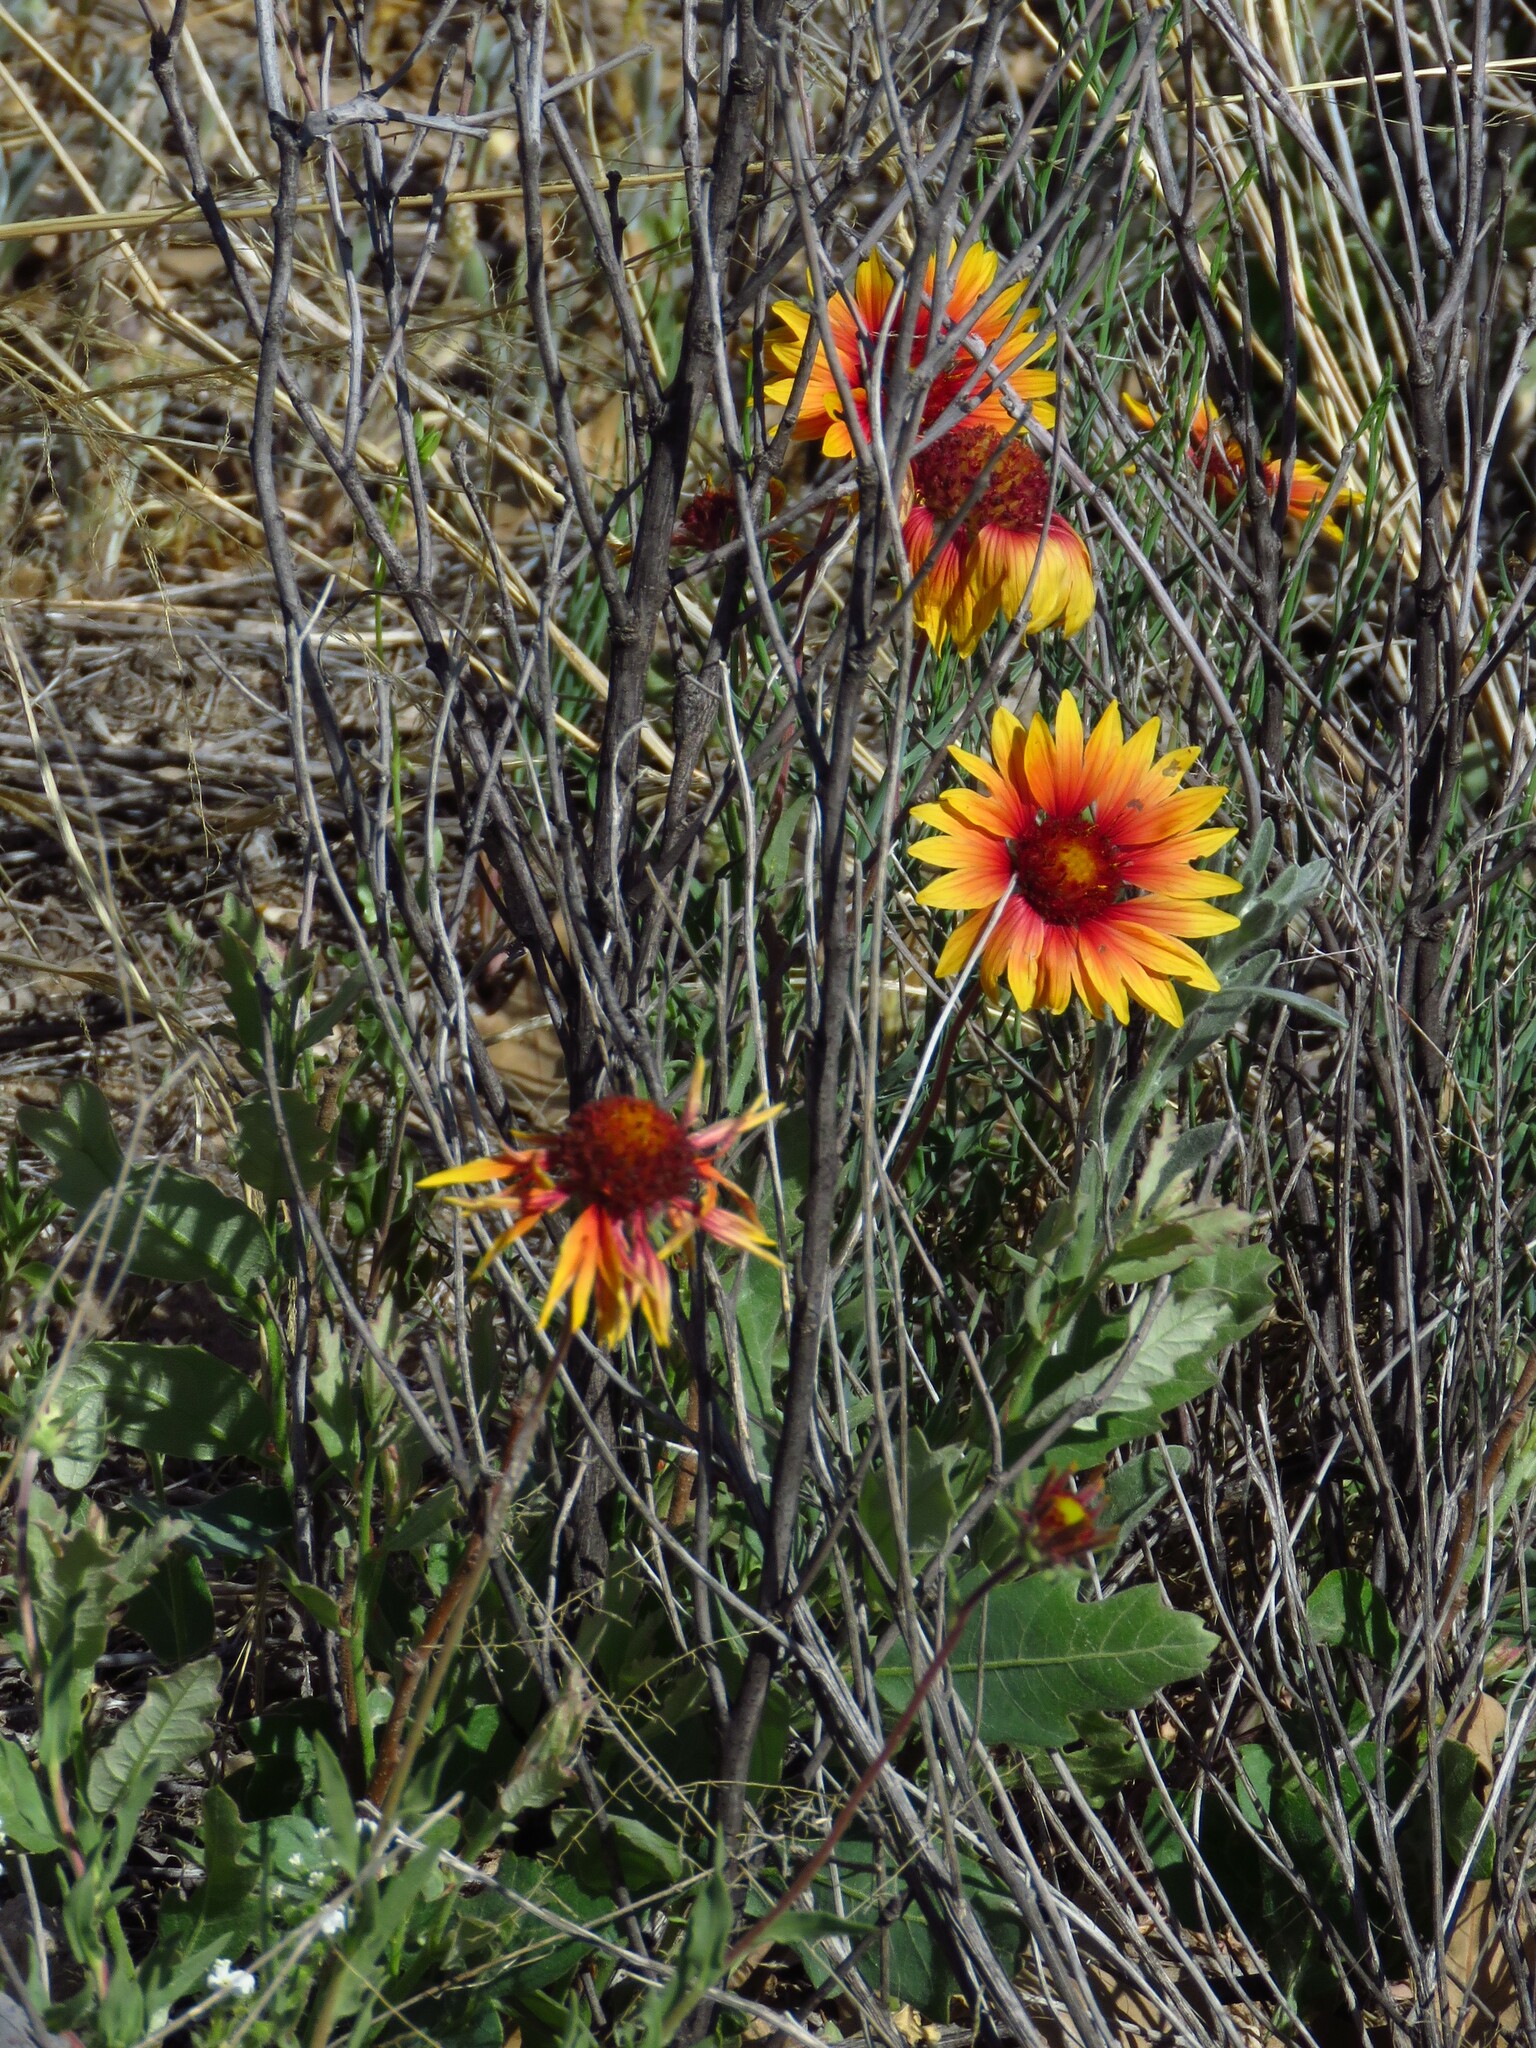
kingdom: Plantae
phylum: Tracheophyta
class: Magnoliopsida
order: Asterales
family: Asteraceae
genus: Gaillardia
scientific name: Gaillardia pulchella
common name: Firewheel
